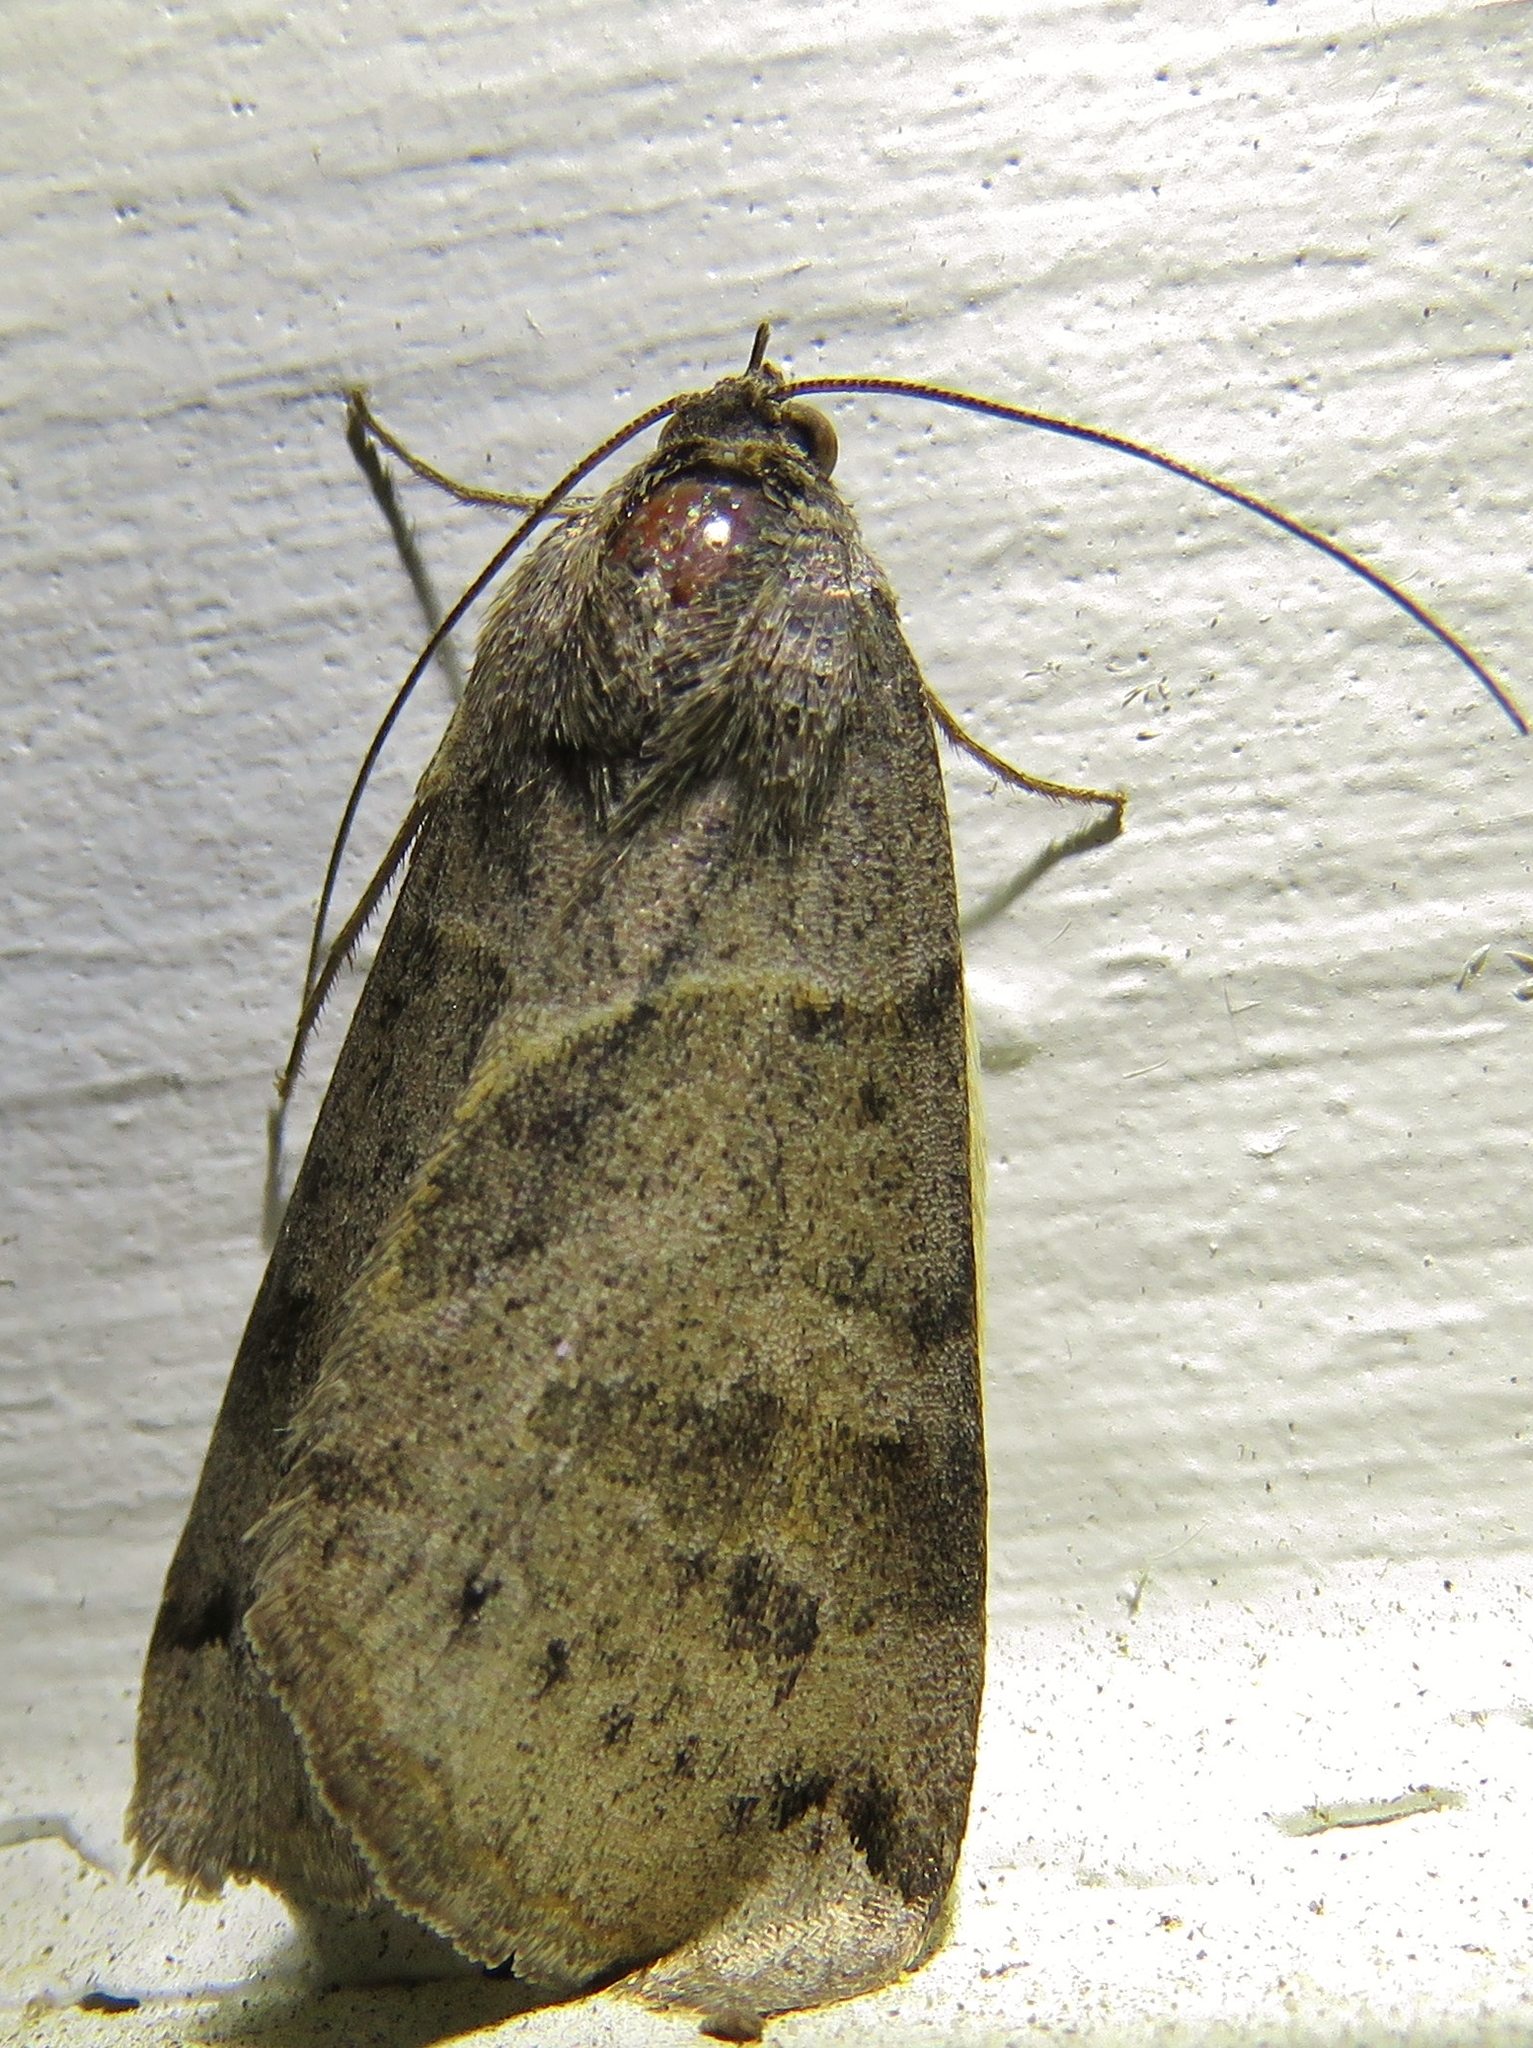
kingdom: Animalia
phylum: Arthropoda
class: Insecta
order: Lepidoptera
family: Erebidae
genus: Caenurgina
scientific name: Caenurgina erechtea
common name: Forage looper moth
